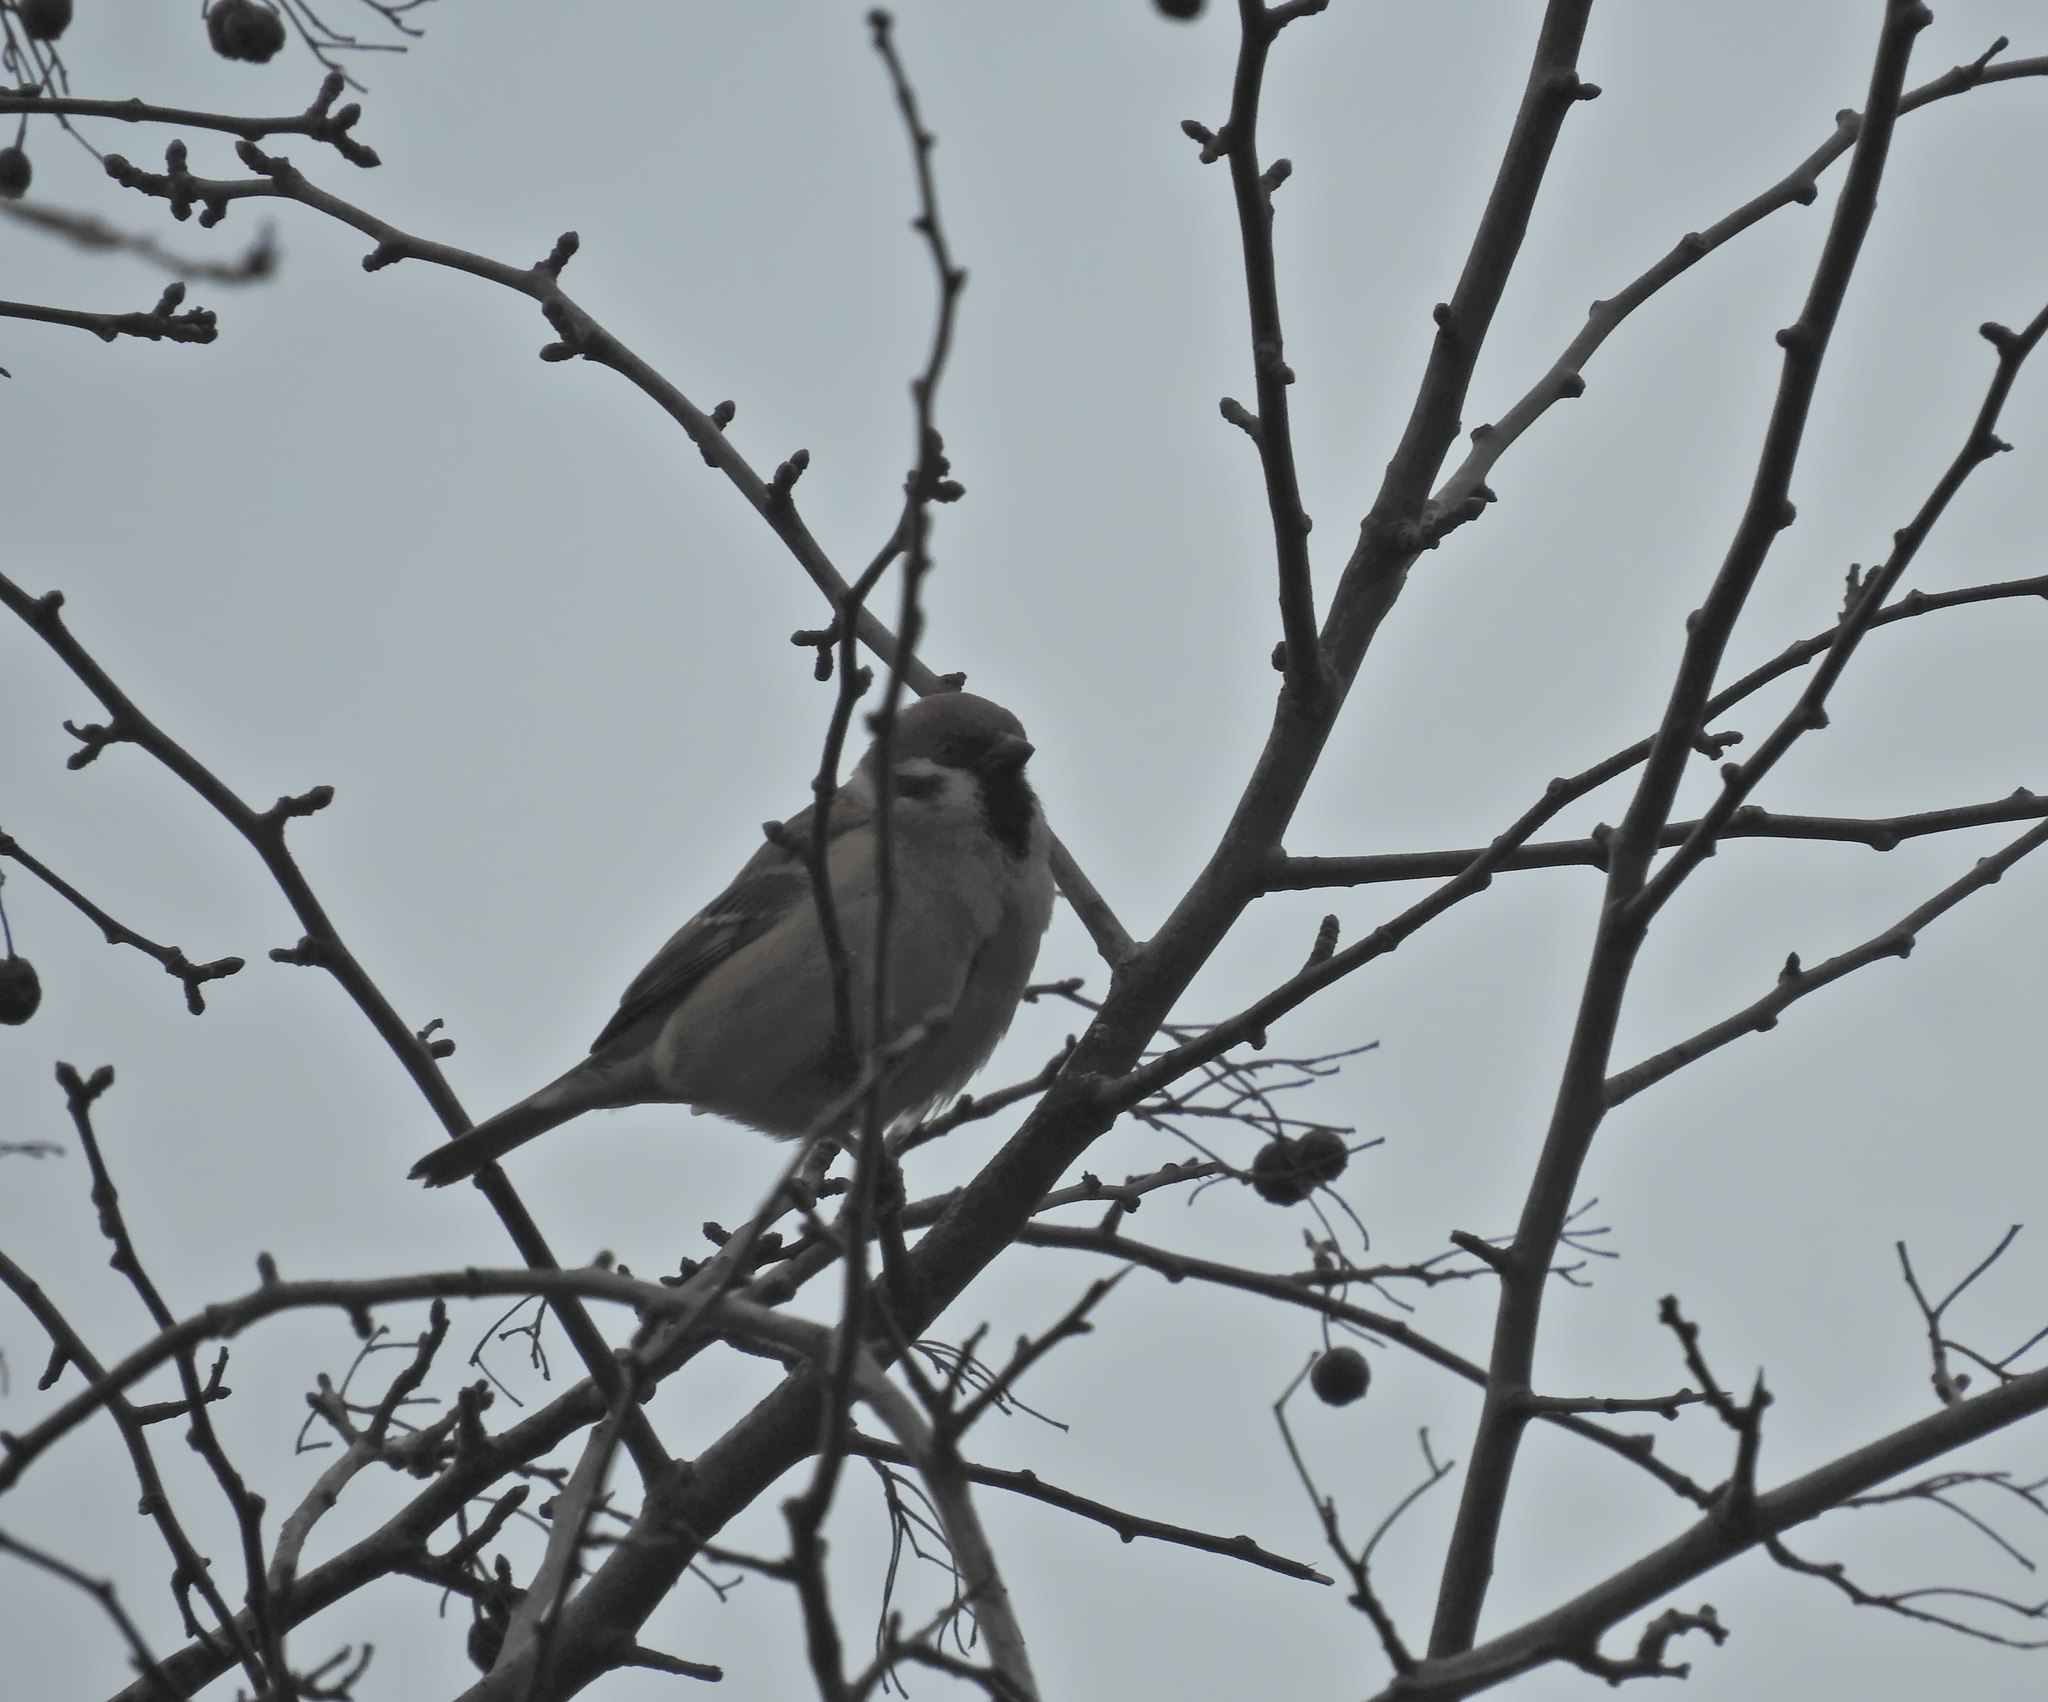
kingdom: Animalia
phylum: Chordata
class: Aves
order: Passeriformes
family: Passeridae
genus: Passer
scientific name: Passer montanus
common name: Eurasian tree sparrow
